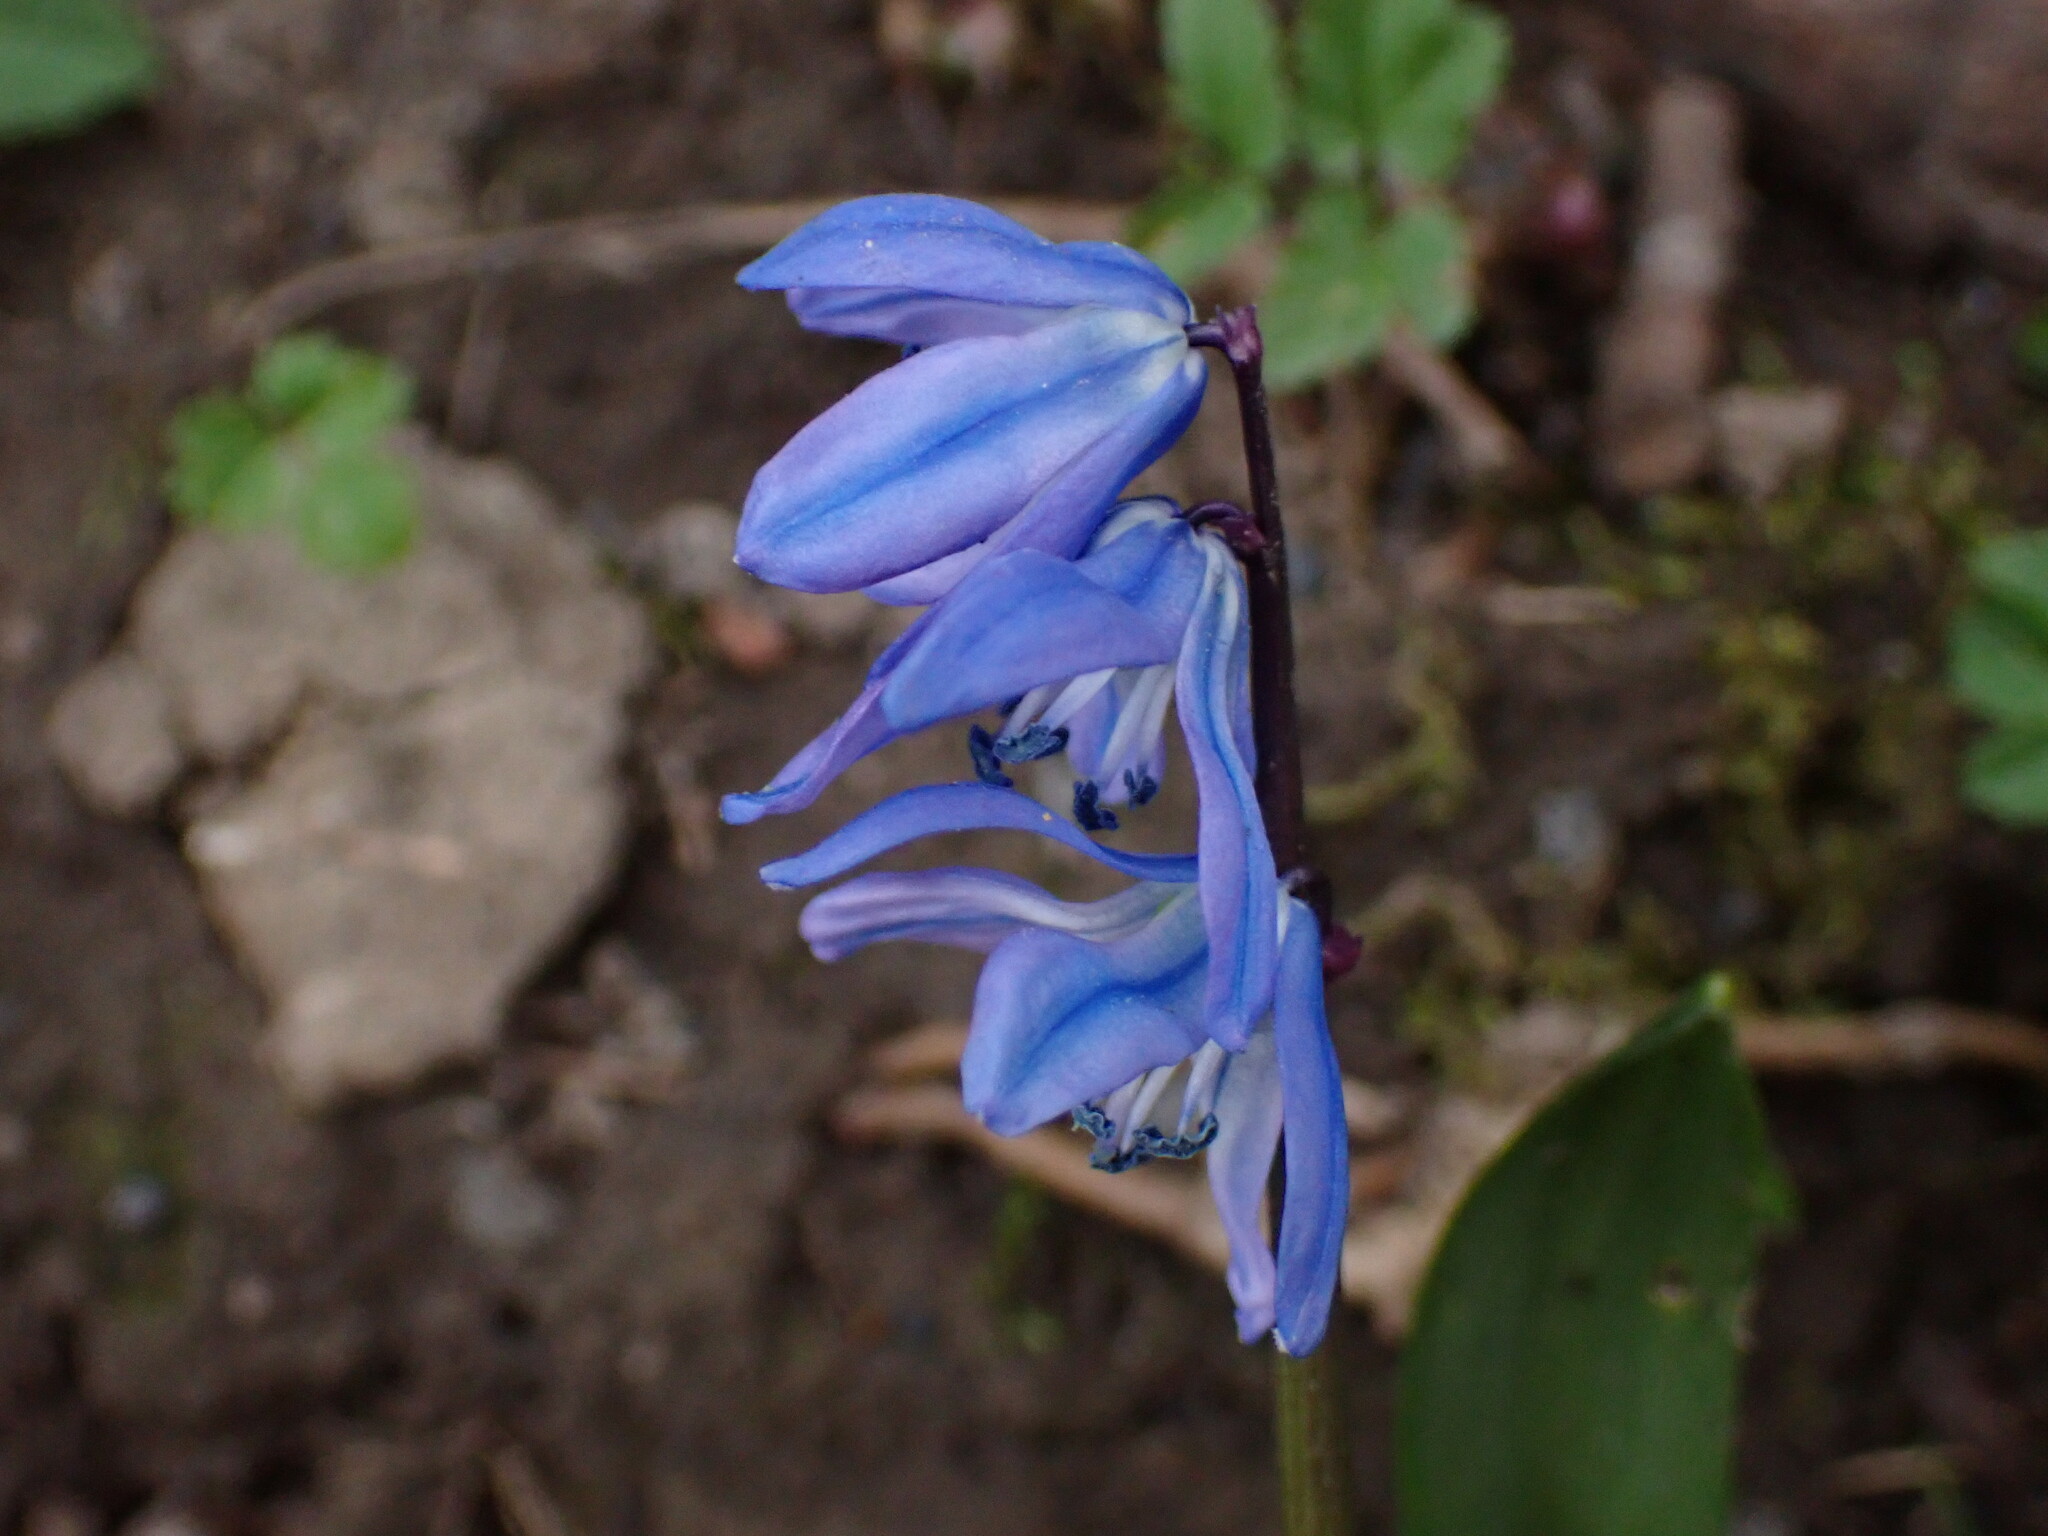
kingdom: Plantae
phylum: Tracheophyta
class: Liliopsida
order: Asparagales
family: Asparagaceae
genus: Scilla
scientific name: Scilla siberica
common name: Siberian squill
